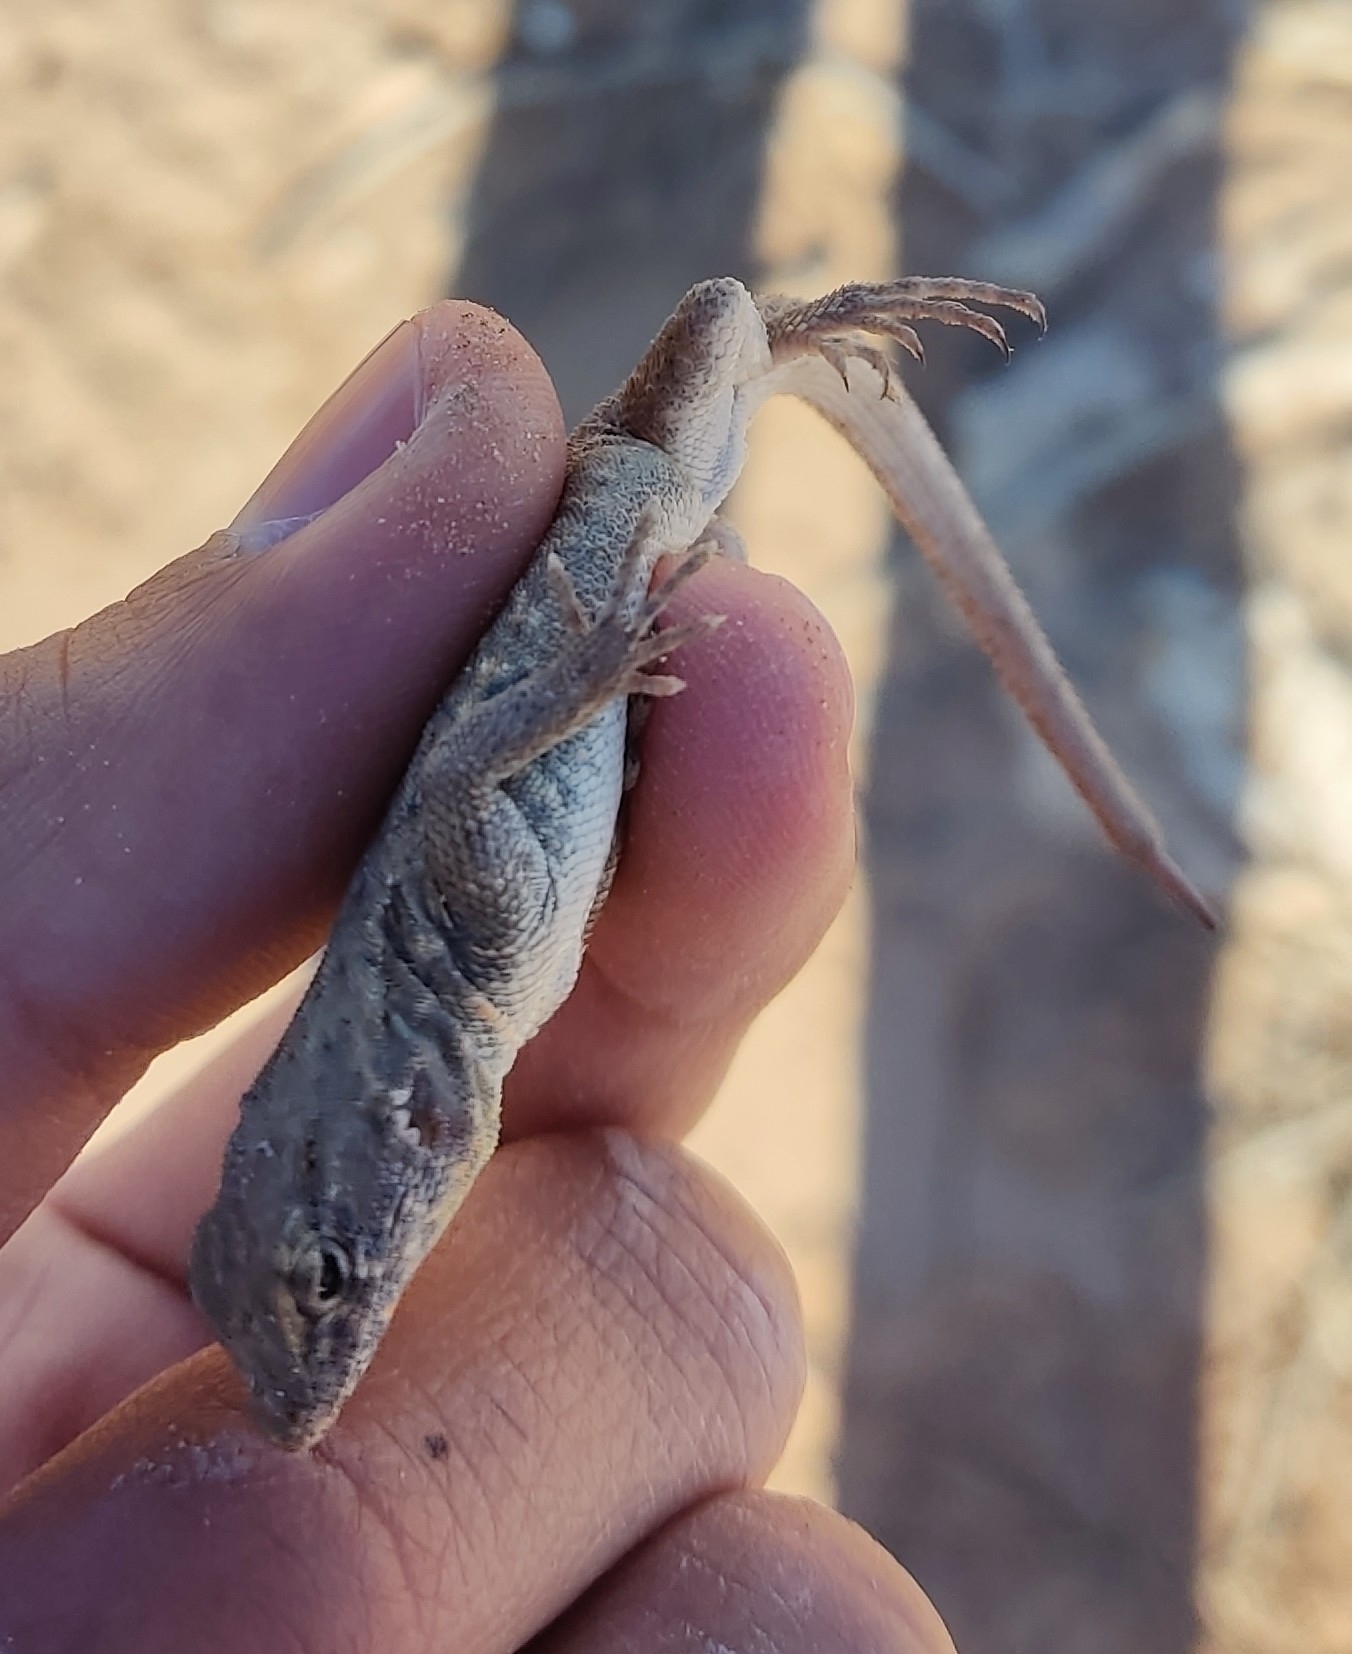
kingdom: Animalia
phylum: Chordata
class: Squamata
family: Phrynosomatidae
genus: Uta
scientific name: Uta stansburiana
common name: Side-blotched lizard
